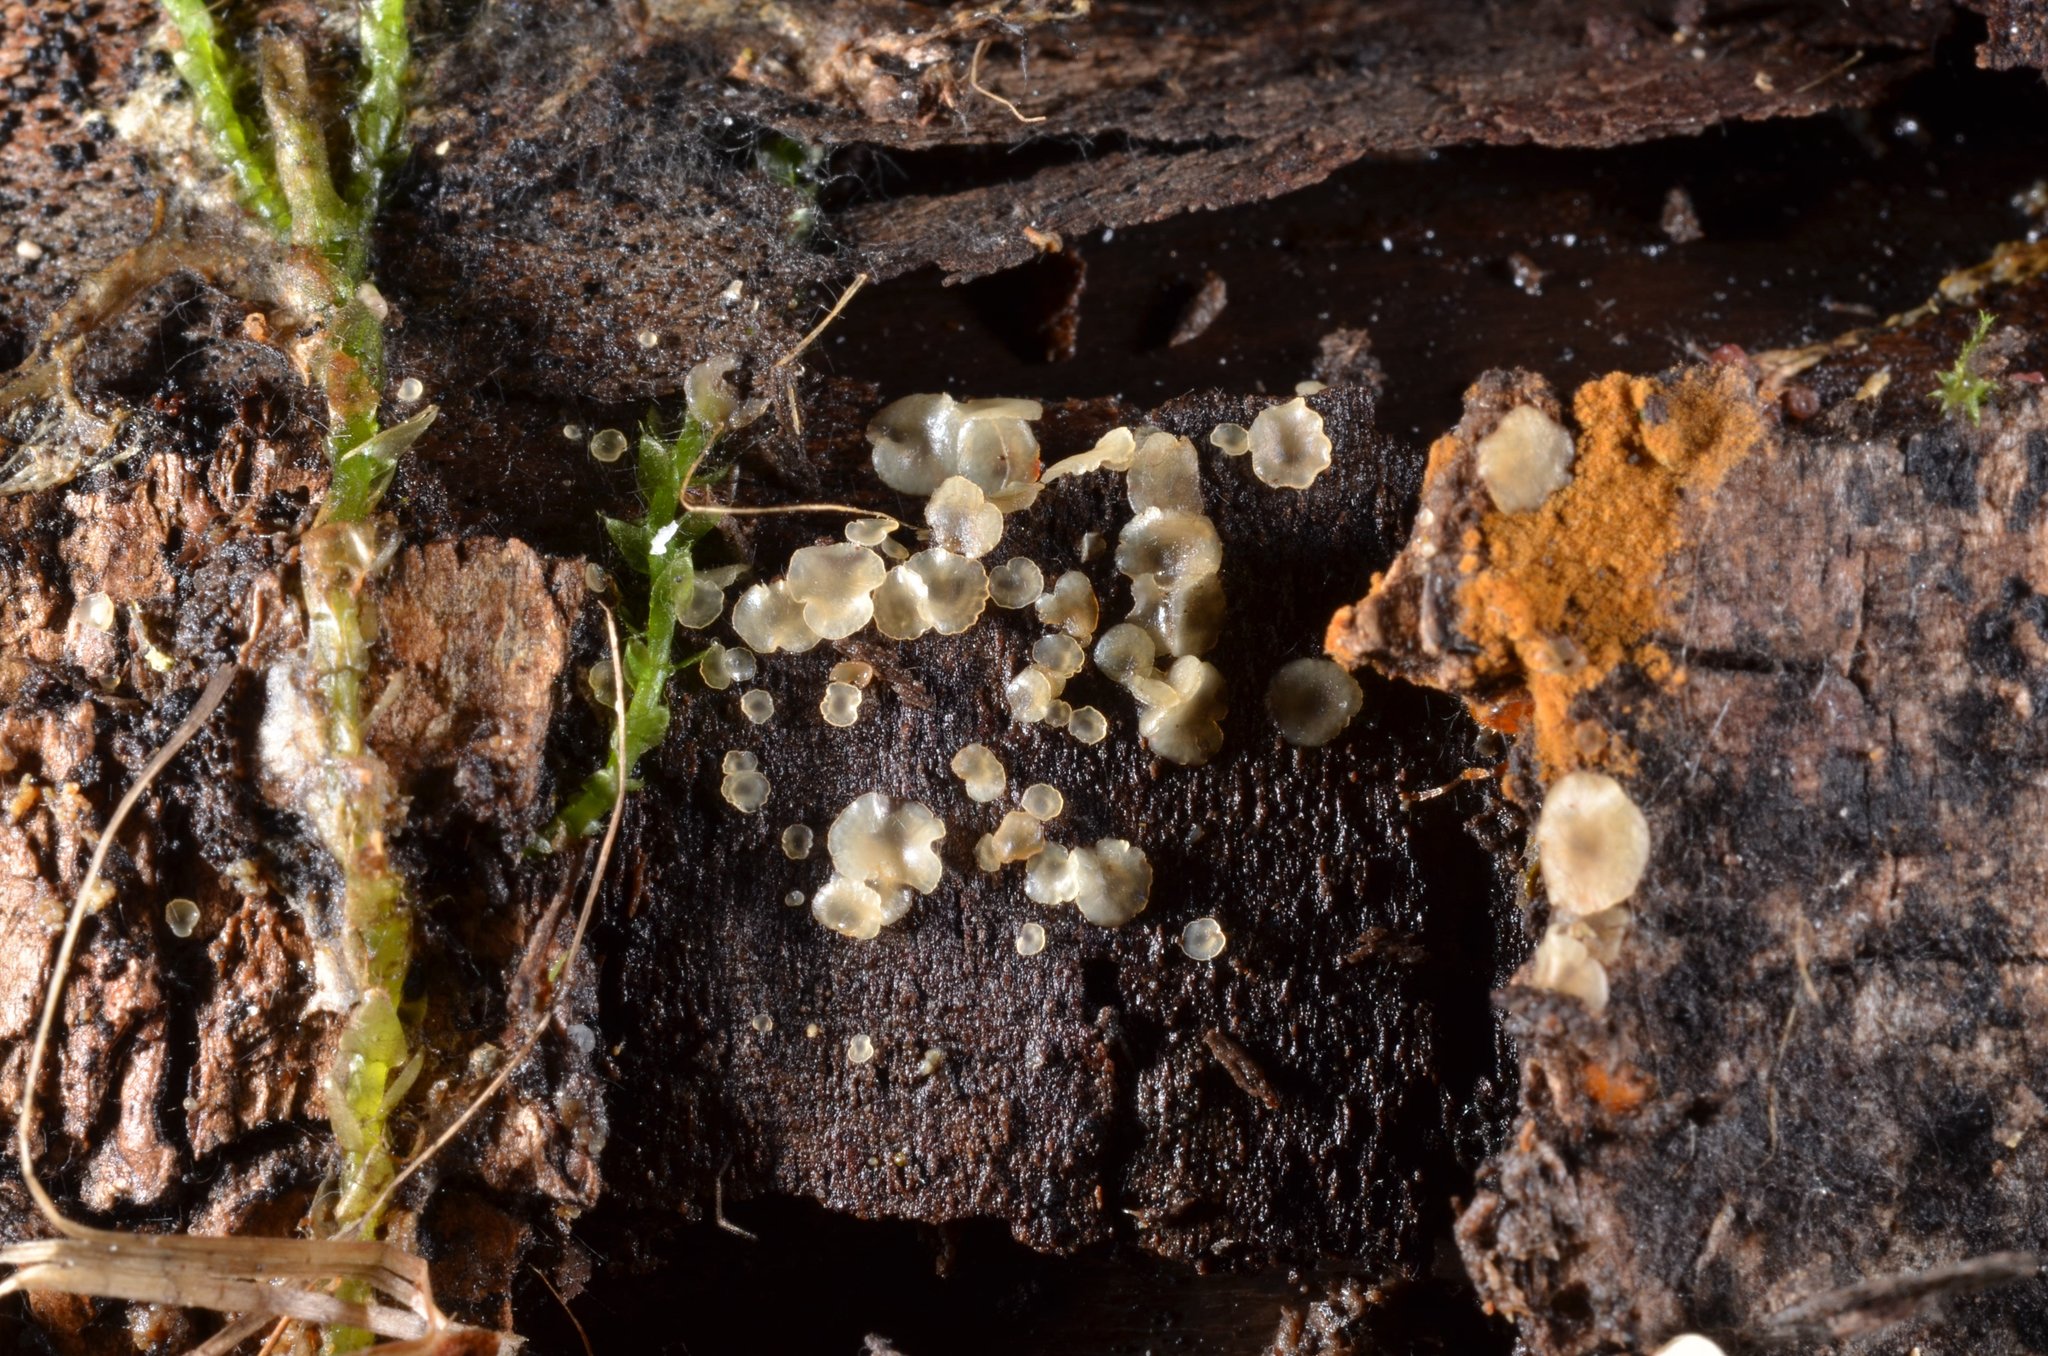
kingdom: Fungi
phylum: Ascomycota
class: Orbiliomycetes
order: Orbiliales
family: Orbiliaceae
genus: Hyalorbilia
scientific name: Hyalorbilia inflatula
